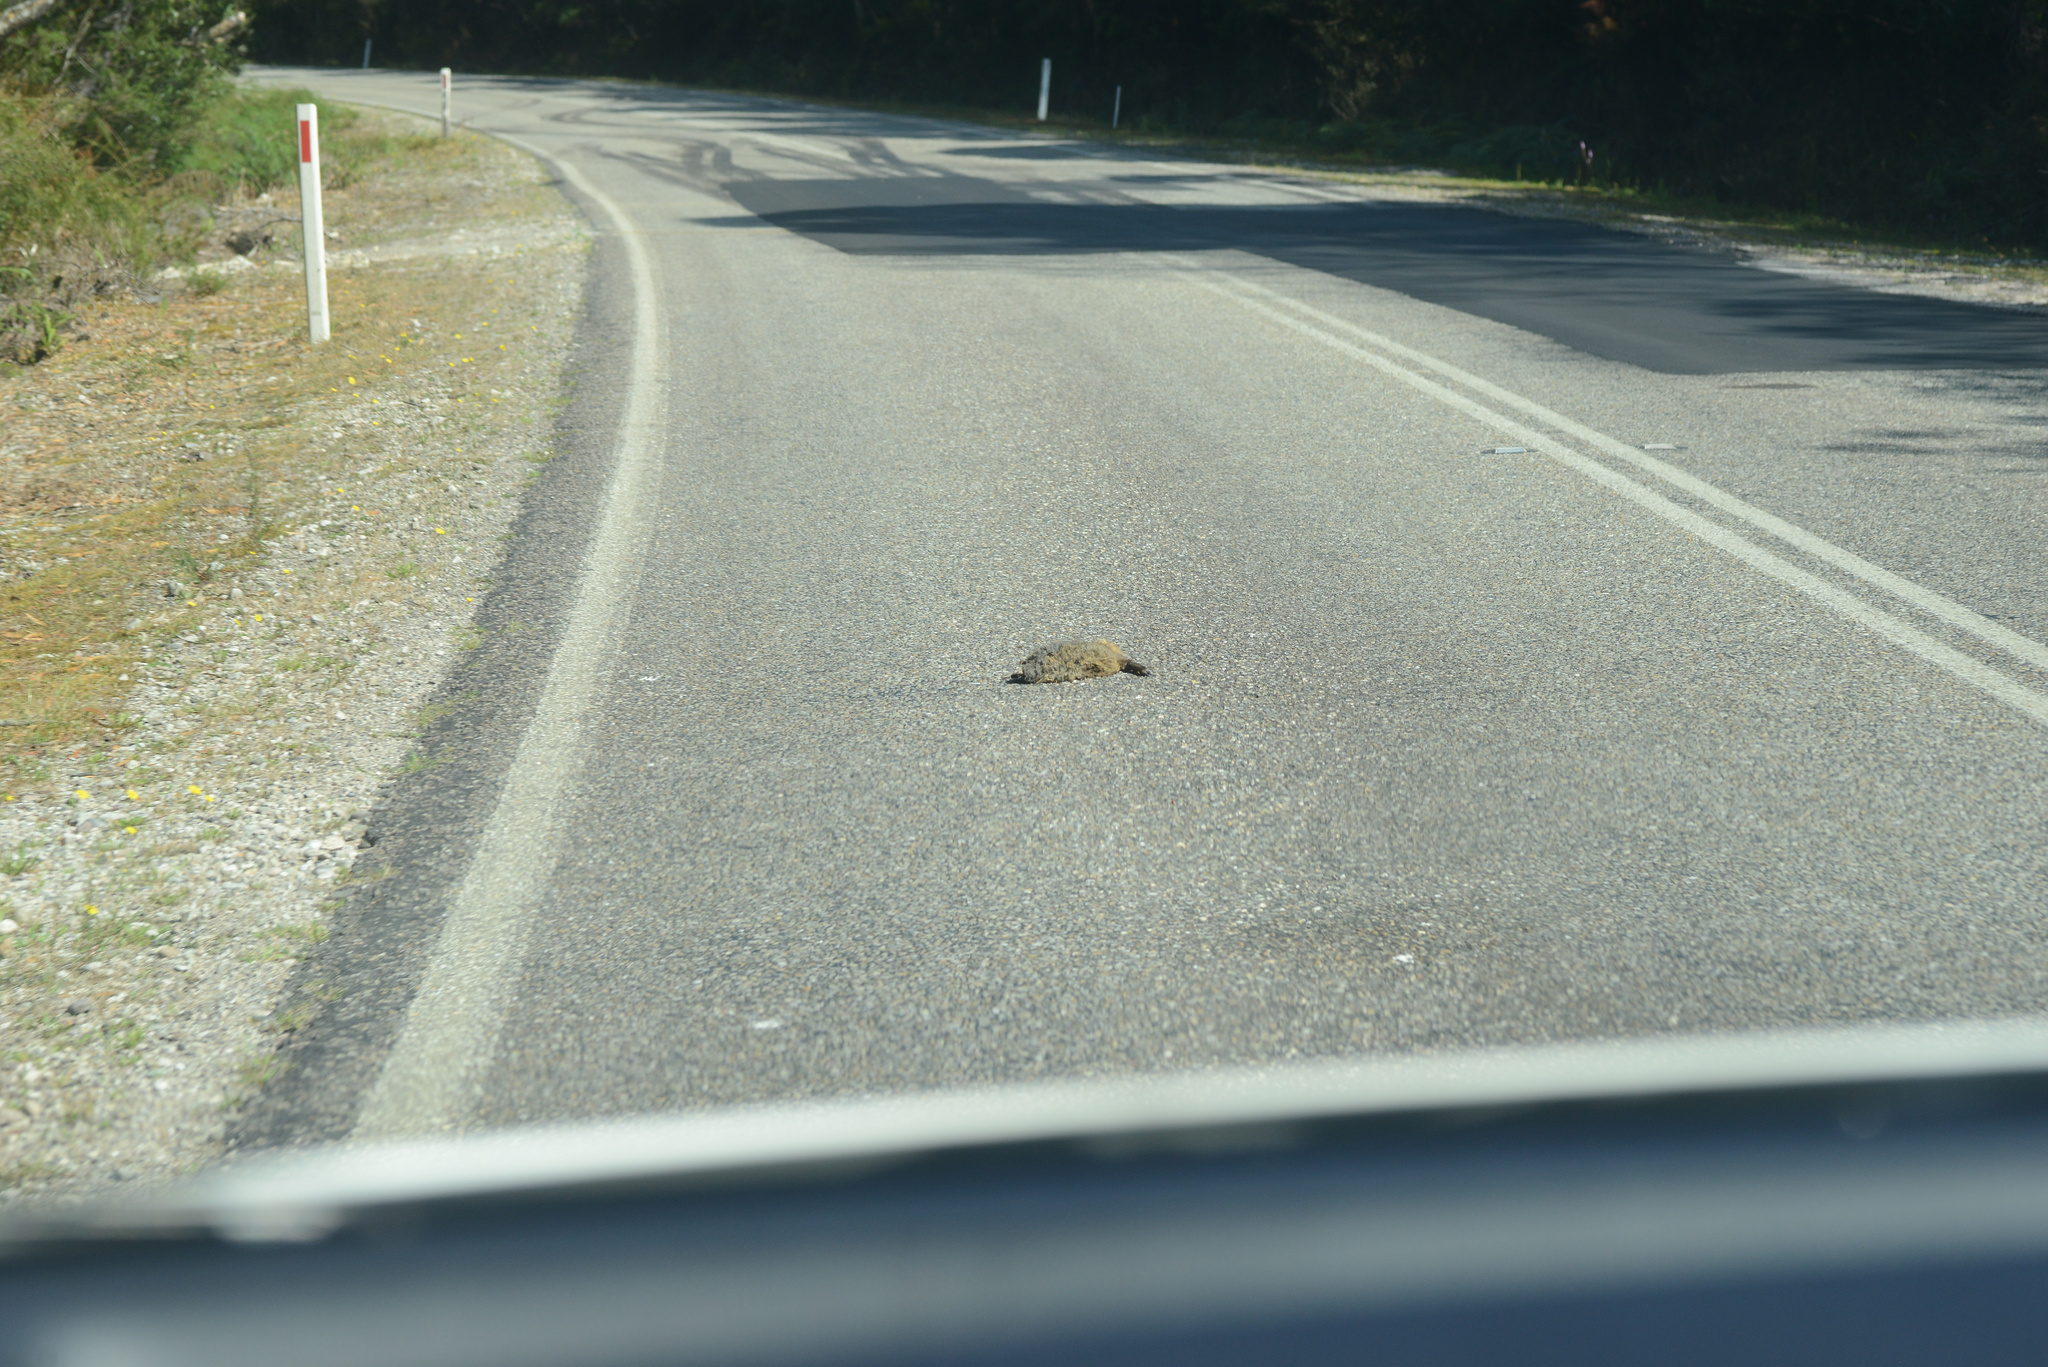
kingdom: Animalia
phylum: Chordata
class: Mammalia
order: Diprotodontia
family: Macropodidae
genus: Thylogale
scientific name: Thylogale billardierii
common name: Tasmanian pademelon
